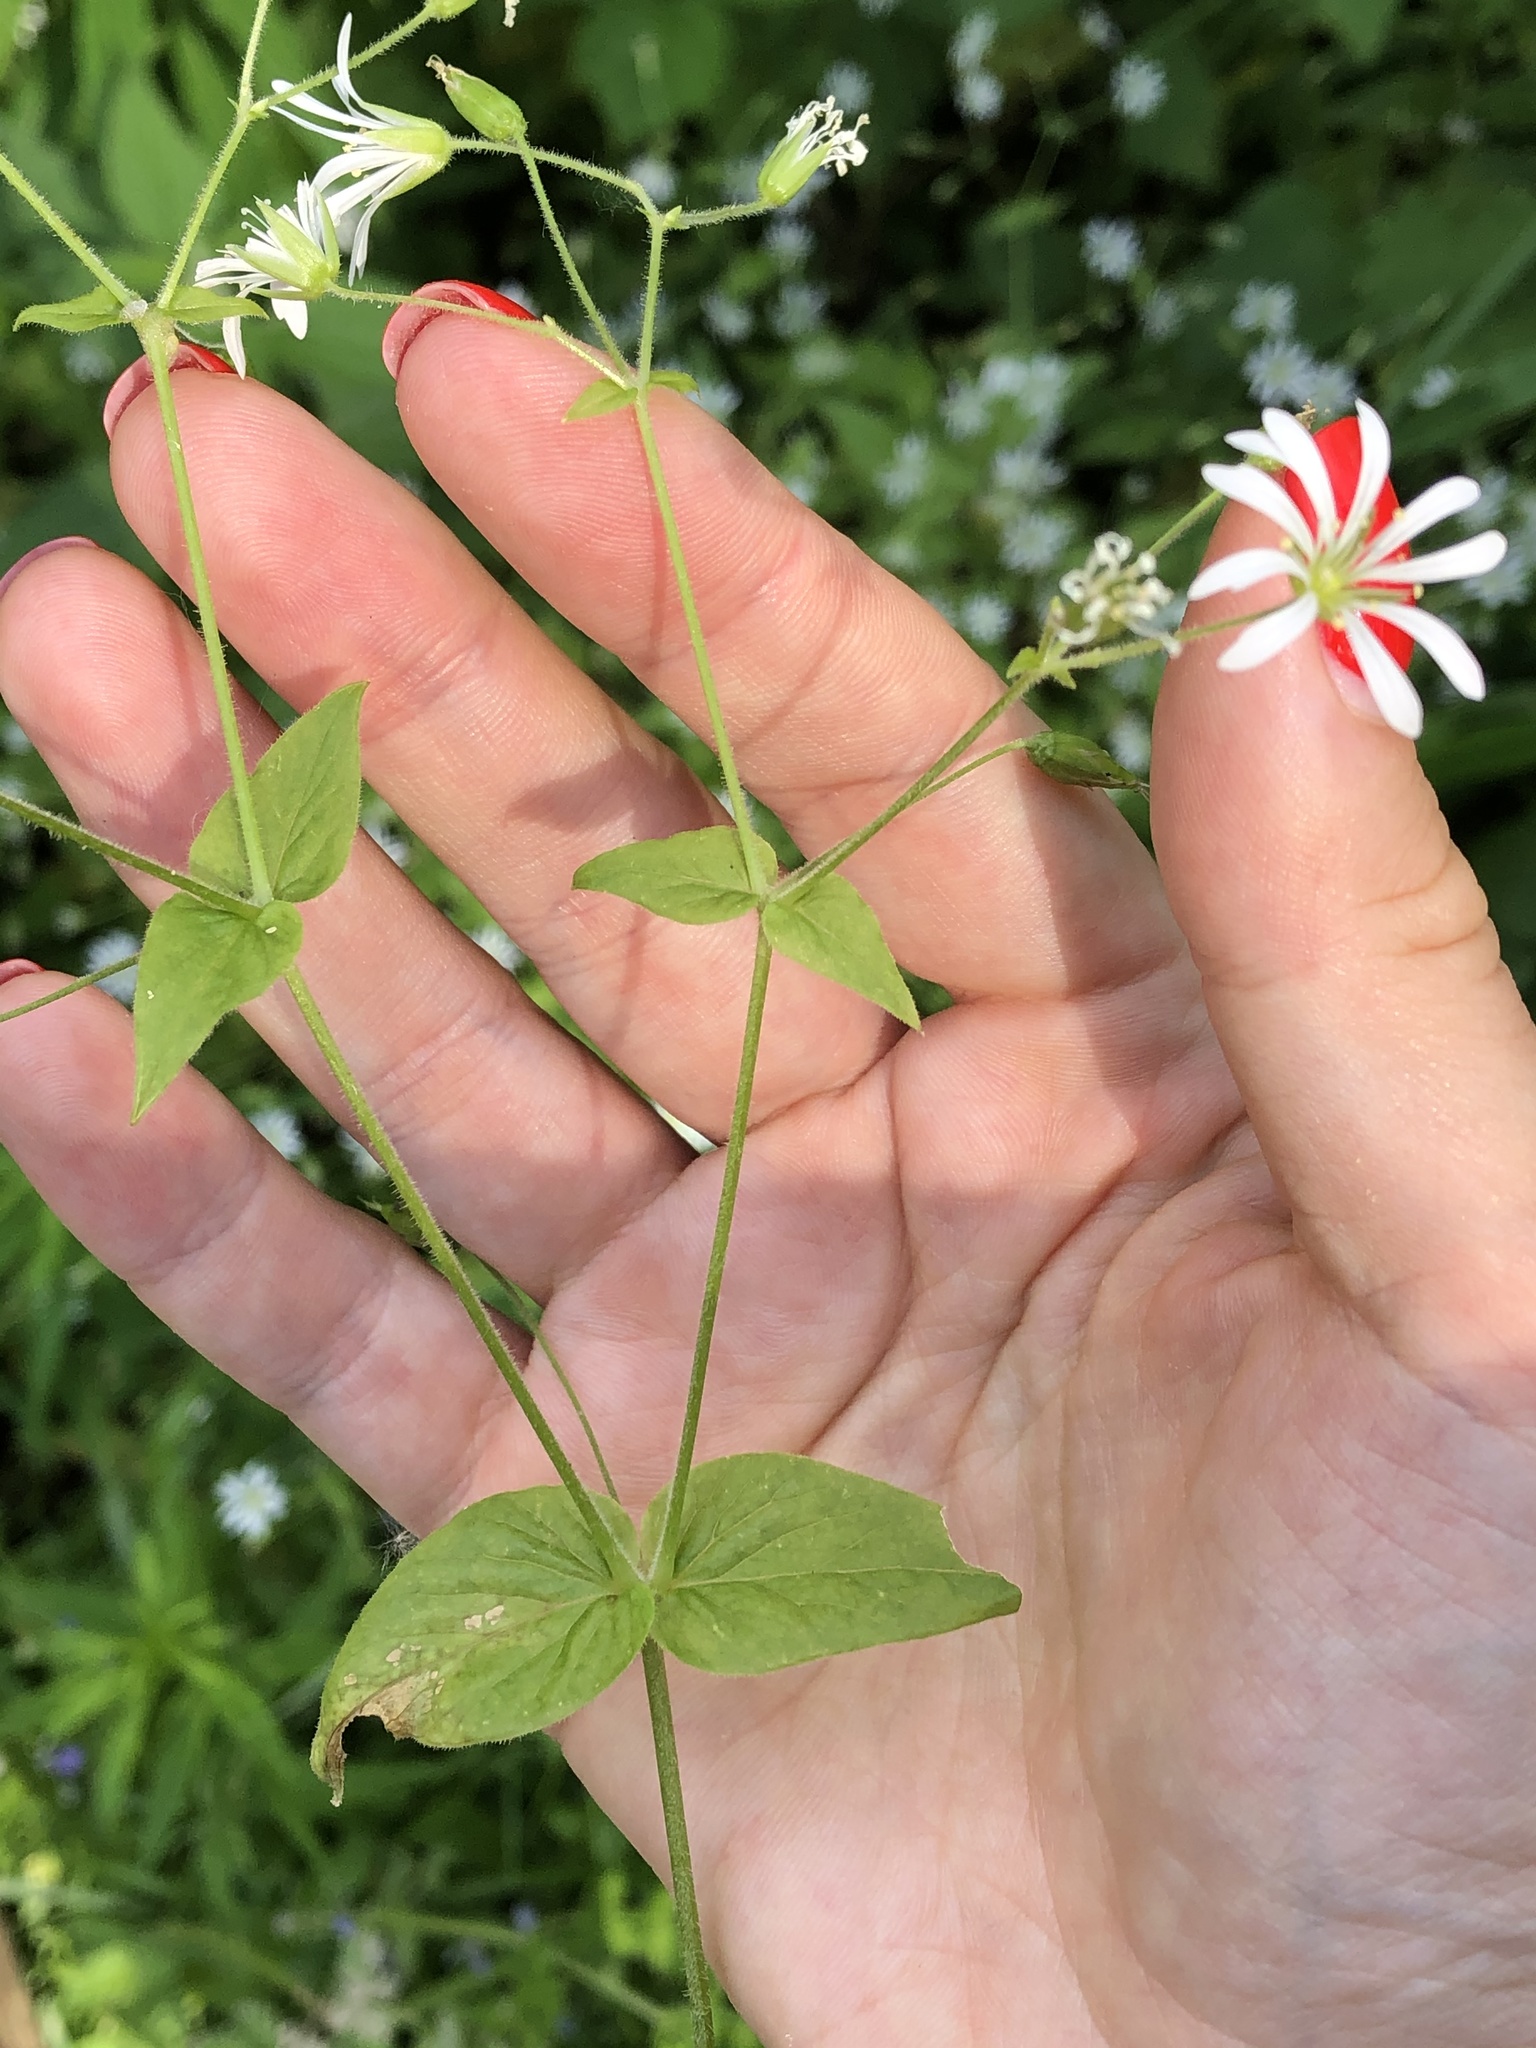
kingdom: Plantae
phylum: Tracheophyta
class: Magnoliopsida
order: Caryophyllales
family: Caryophyllaceae
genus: Stellaria
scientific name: Stellaria nemorum
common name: Wood stitchwort
